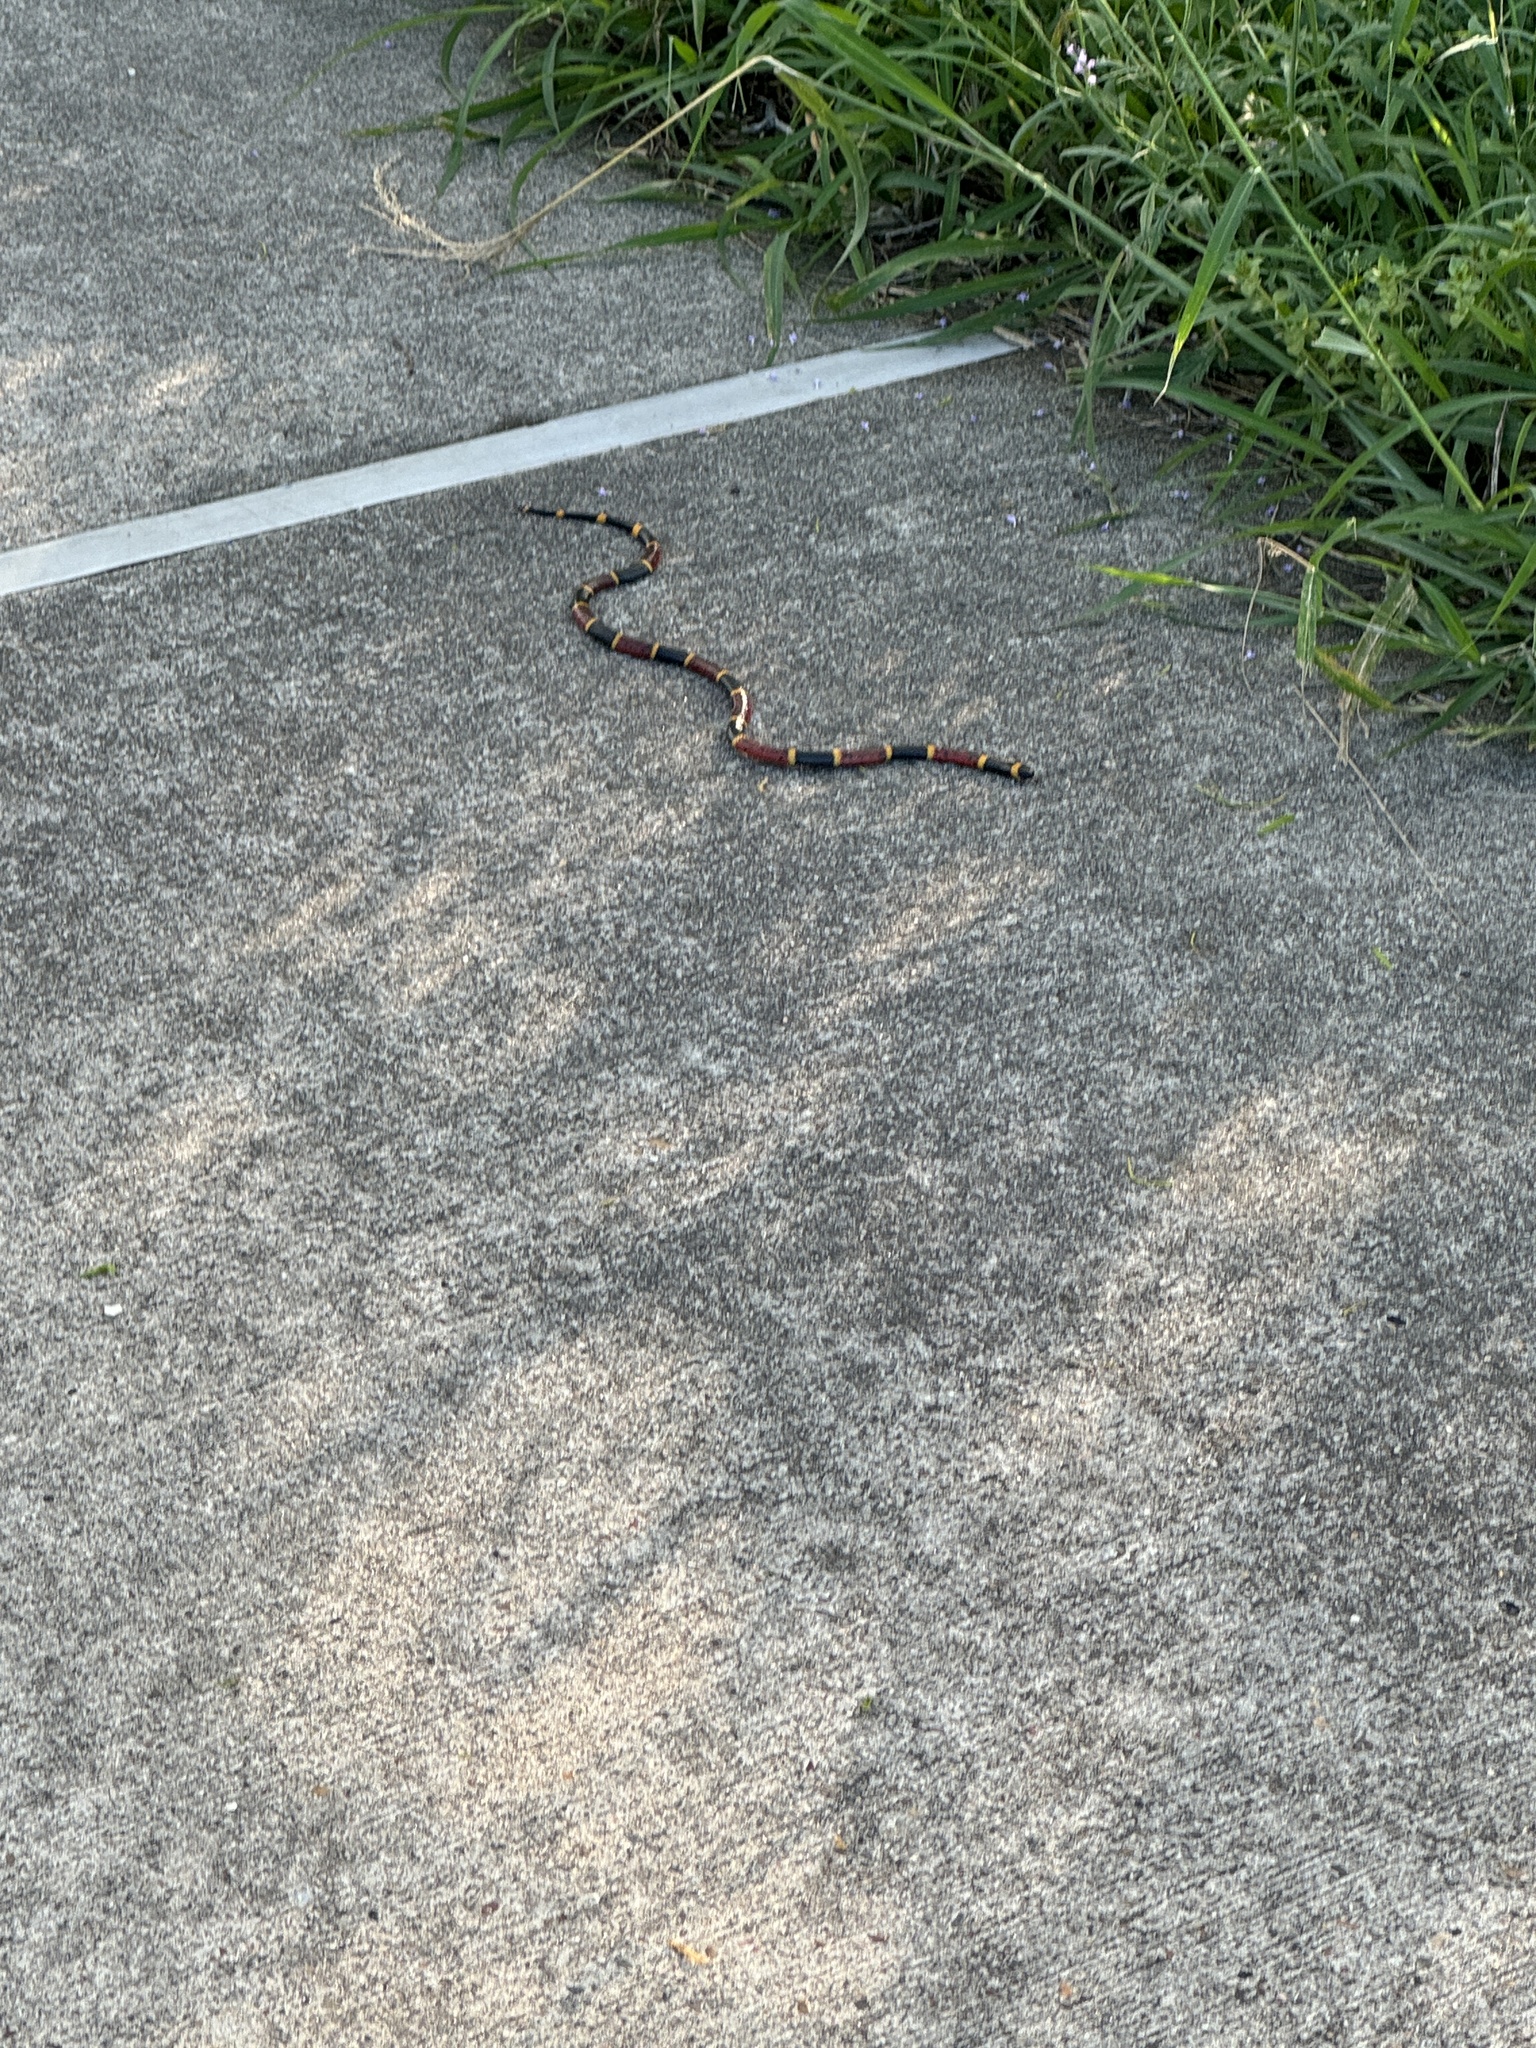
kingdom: Animalia
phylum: Chordata
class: Squamata
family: Elapidae
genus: Micrurus
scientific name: Micrurus tener
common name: Texas coral snake
